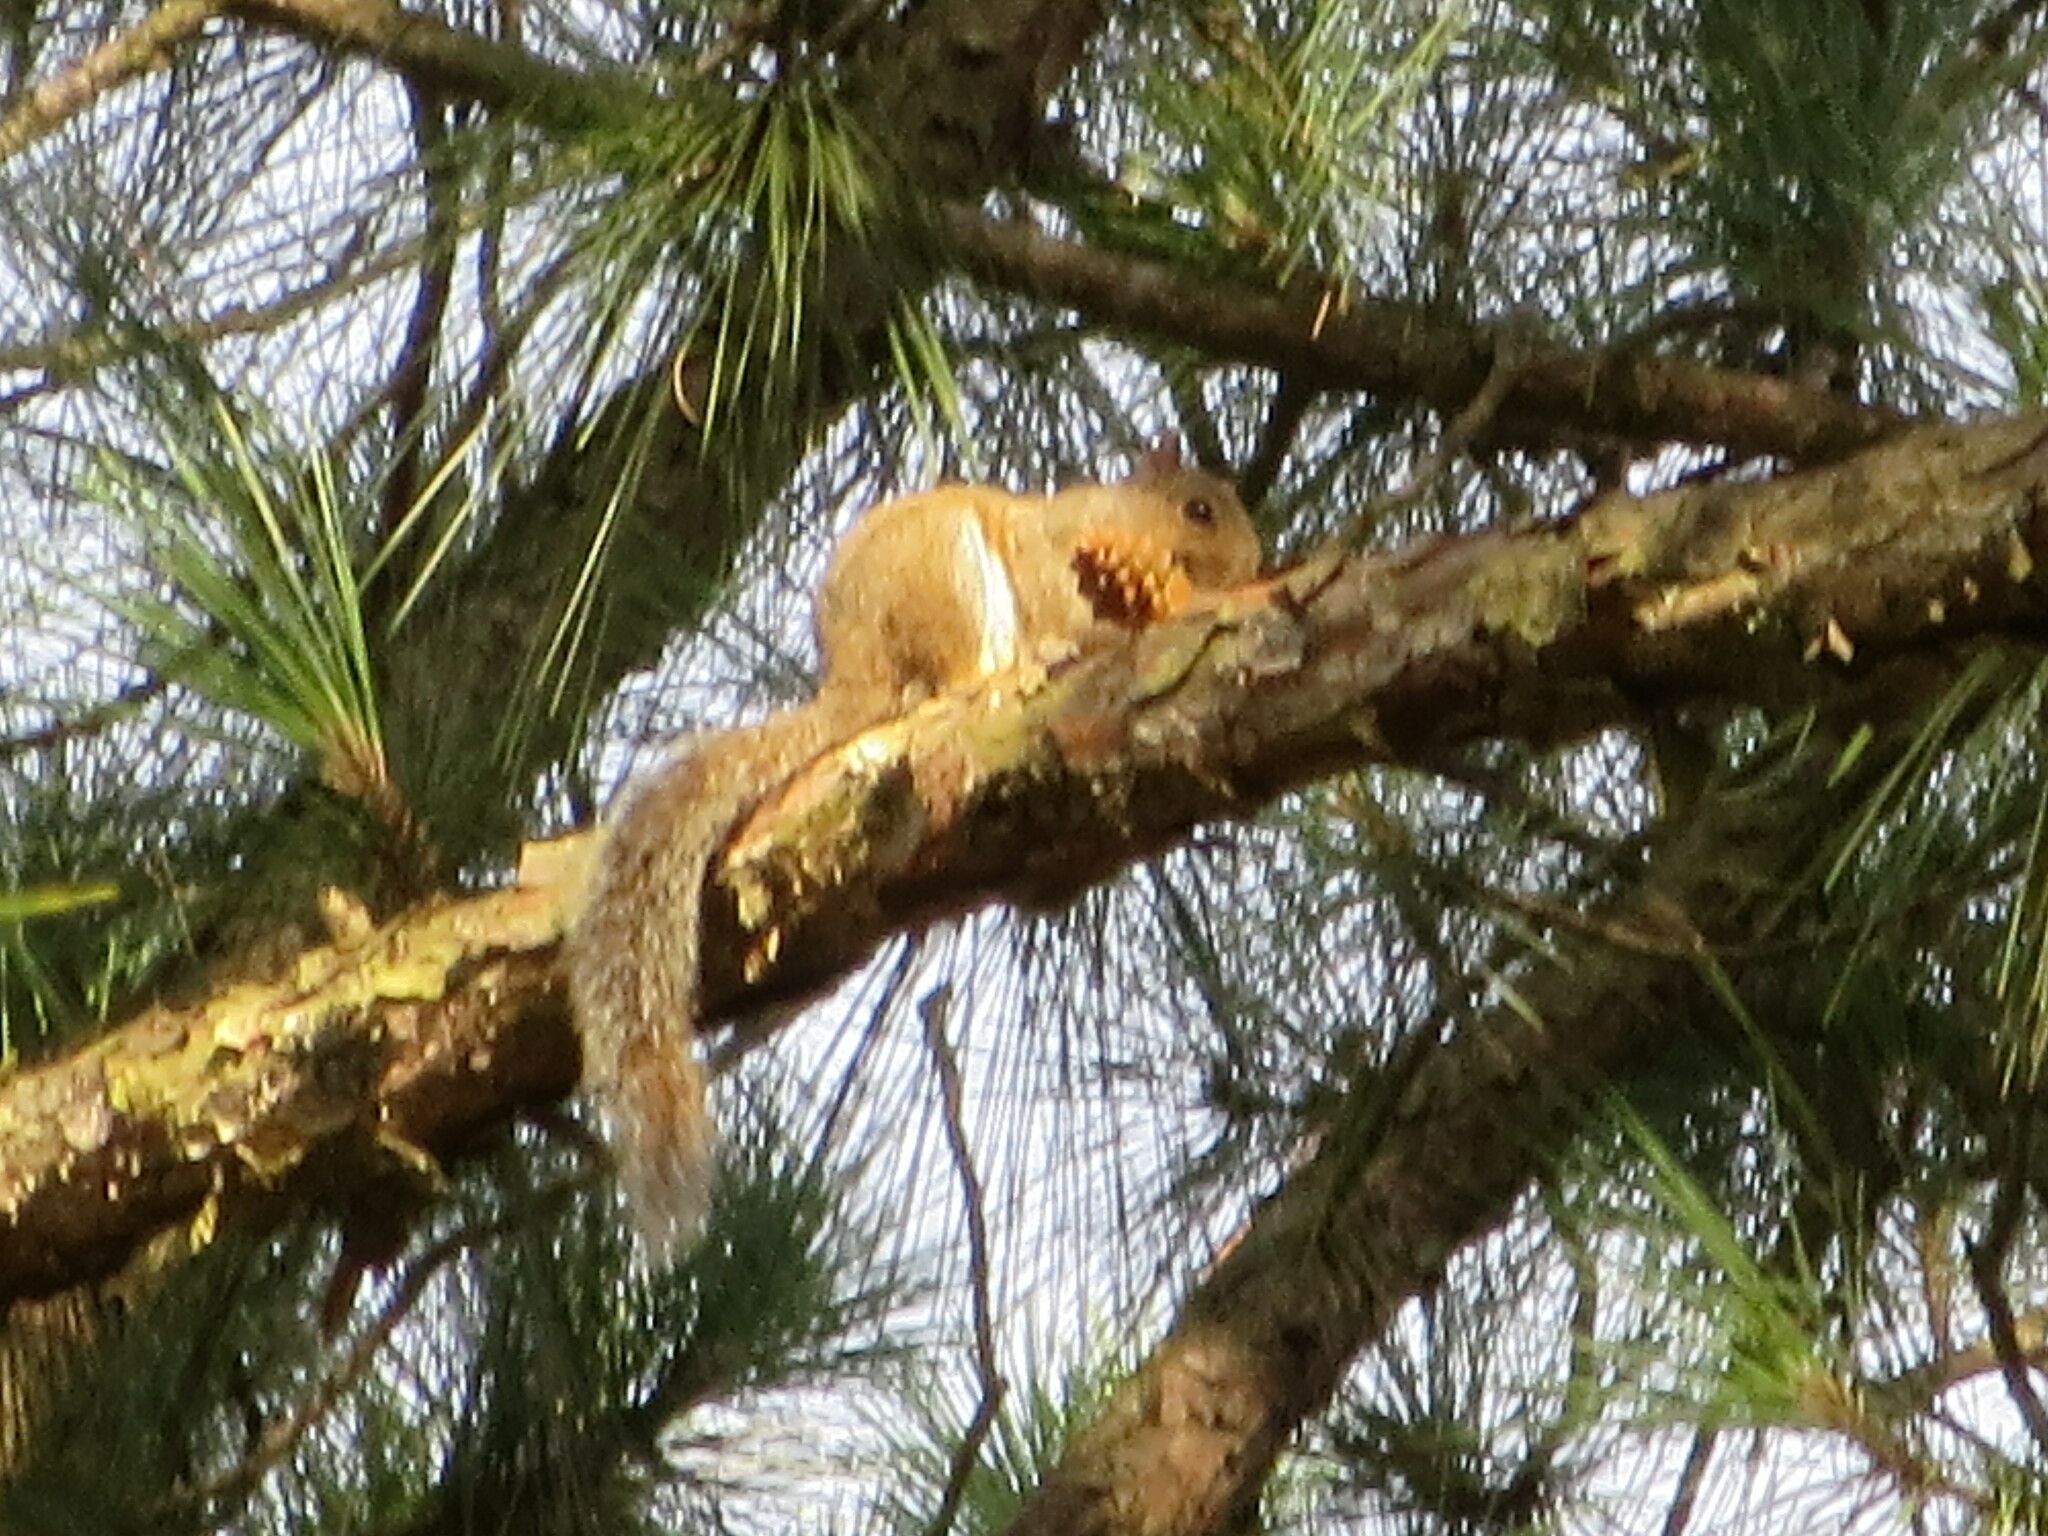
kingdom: Animalia
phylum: Chordata
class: Mammalia
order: Rodentia
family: Sciuridae
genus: Sciurus
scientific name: Sciurus carolinensis
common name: Eastern gray squirrel
